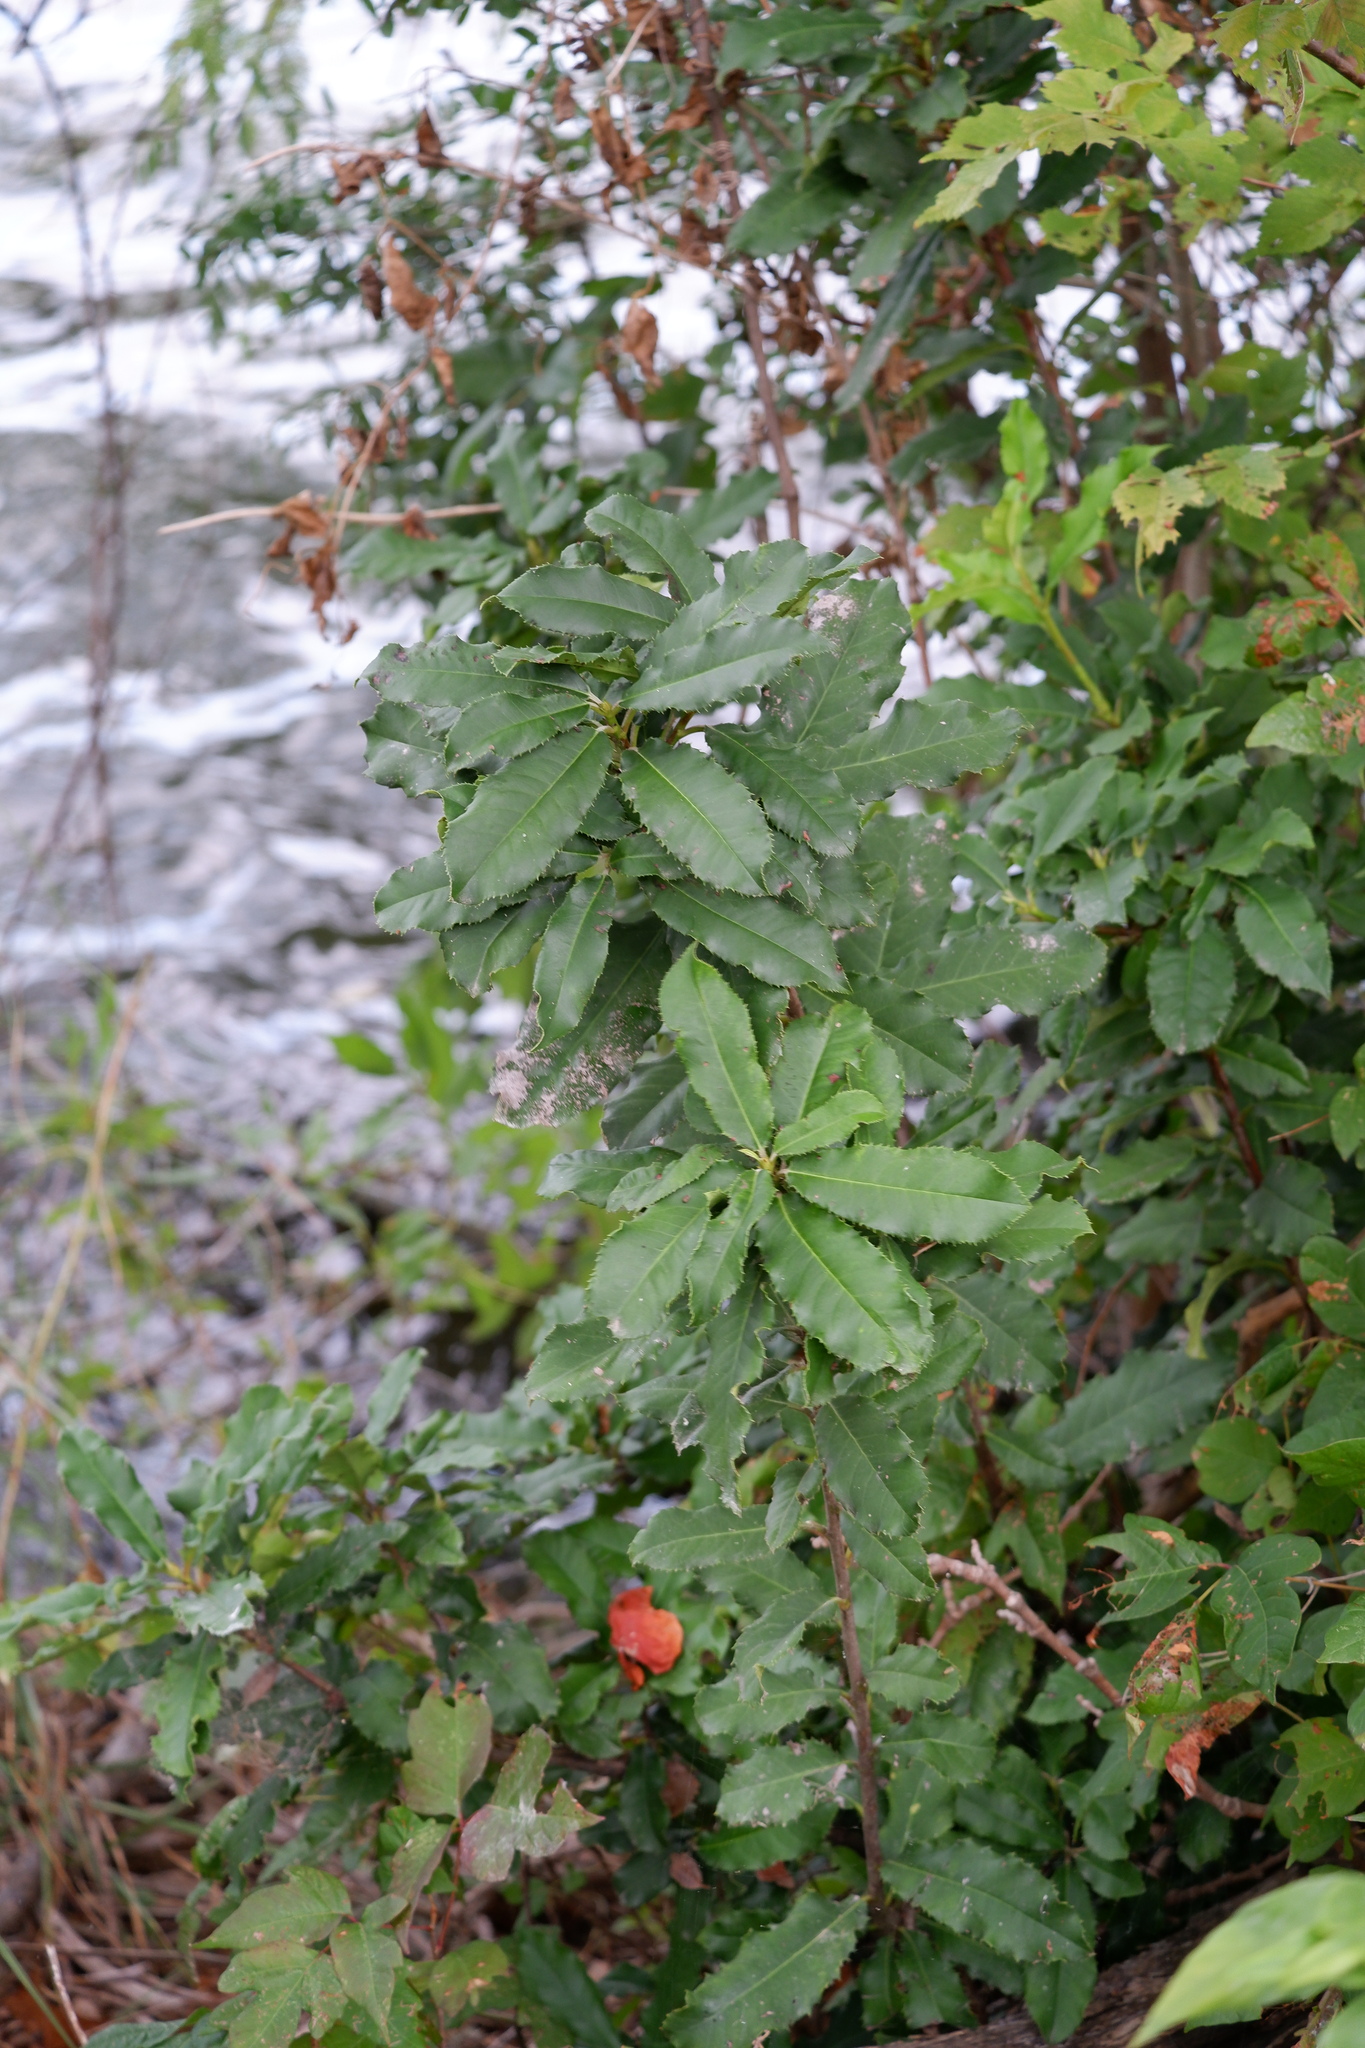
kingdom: Plantae
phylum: Tracheophyta
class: Magnoliopsida
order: Rosales
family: Rosaceae
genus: Photinia
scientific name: Photinia serratifolia
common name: Taiwanese photinia
